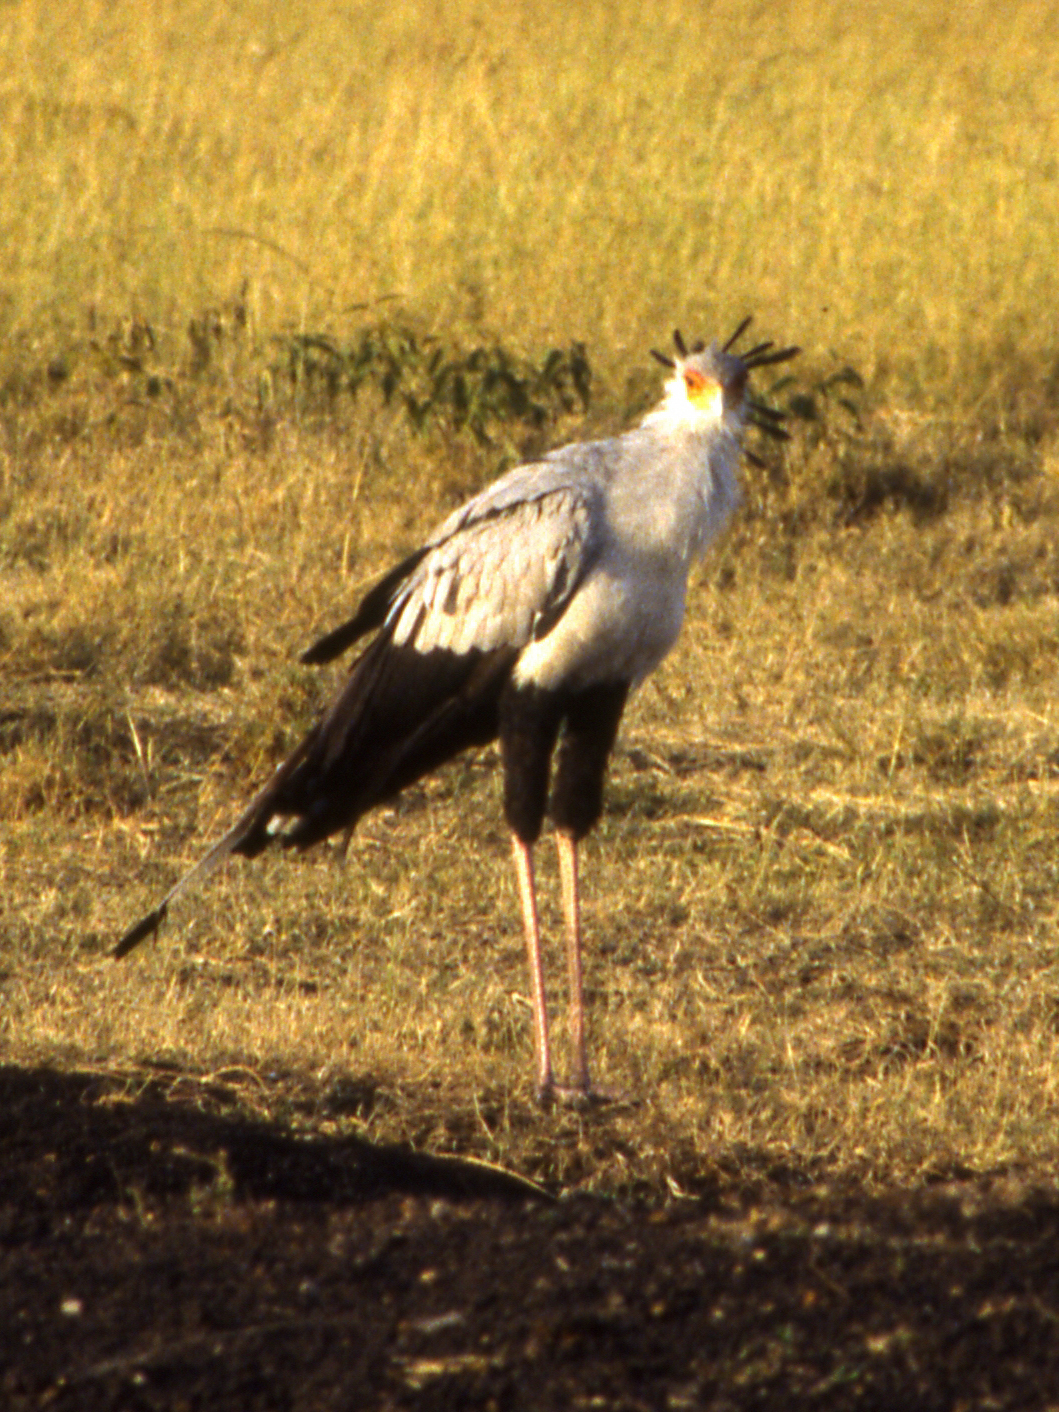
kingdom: Animalia
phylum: Chordata
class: Aves
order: Accipitriformes
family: Sagittariidae
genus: Sagittarius
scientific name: Sagittarius serpentarius
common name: Secretarybird
